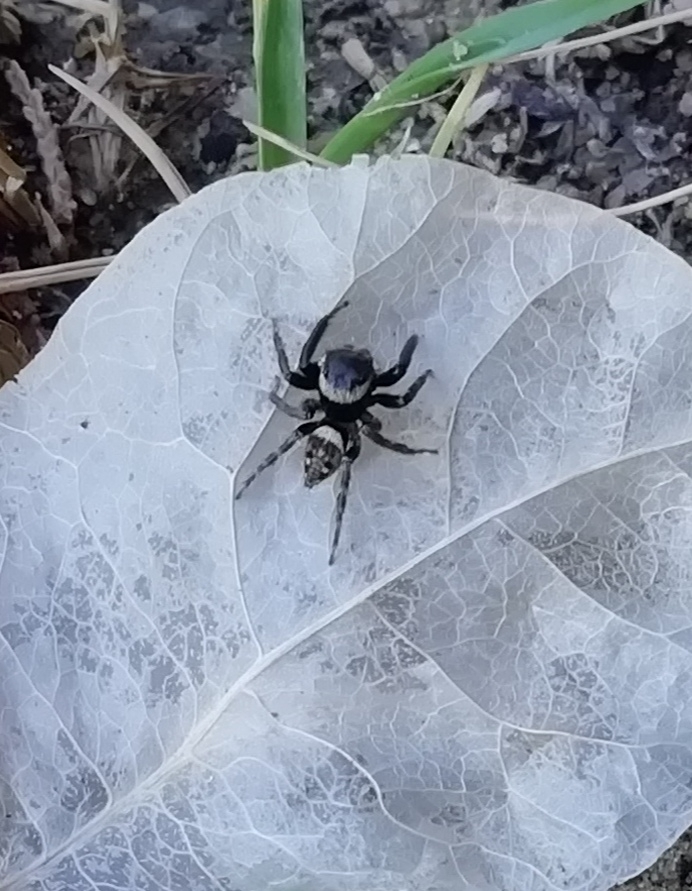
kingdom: Animalia
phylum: Arthropoda
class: Arachnida
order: Araneae
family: Salticidae
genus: Hasarius
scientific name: Hasarius adansoni
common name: Jumping spider
